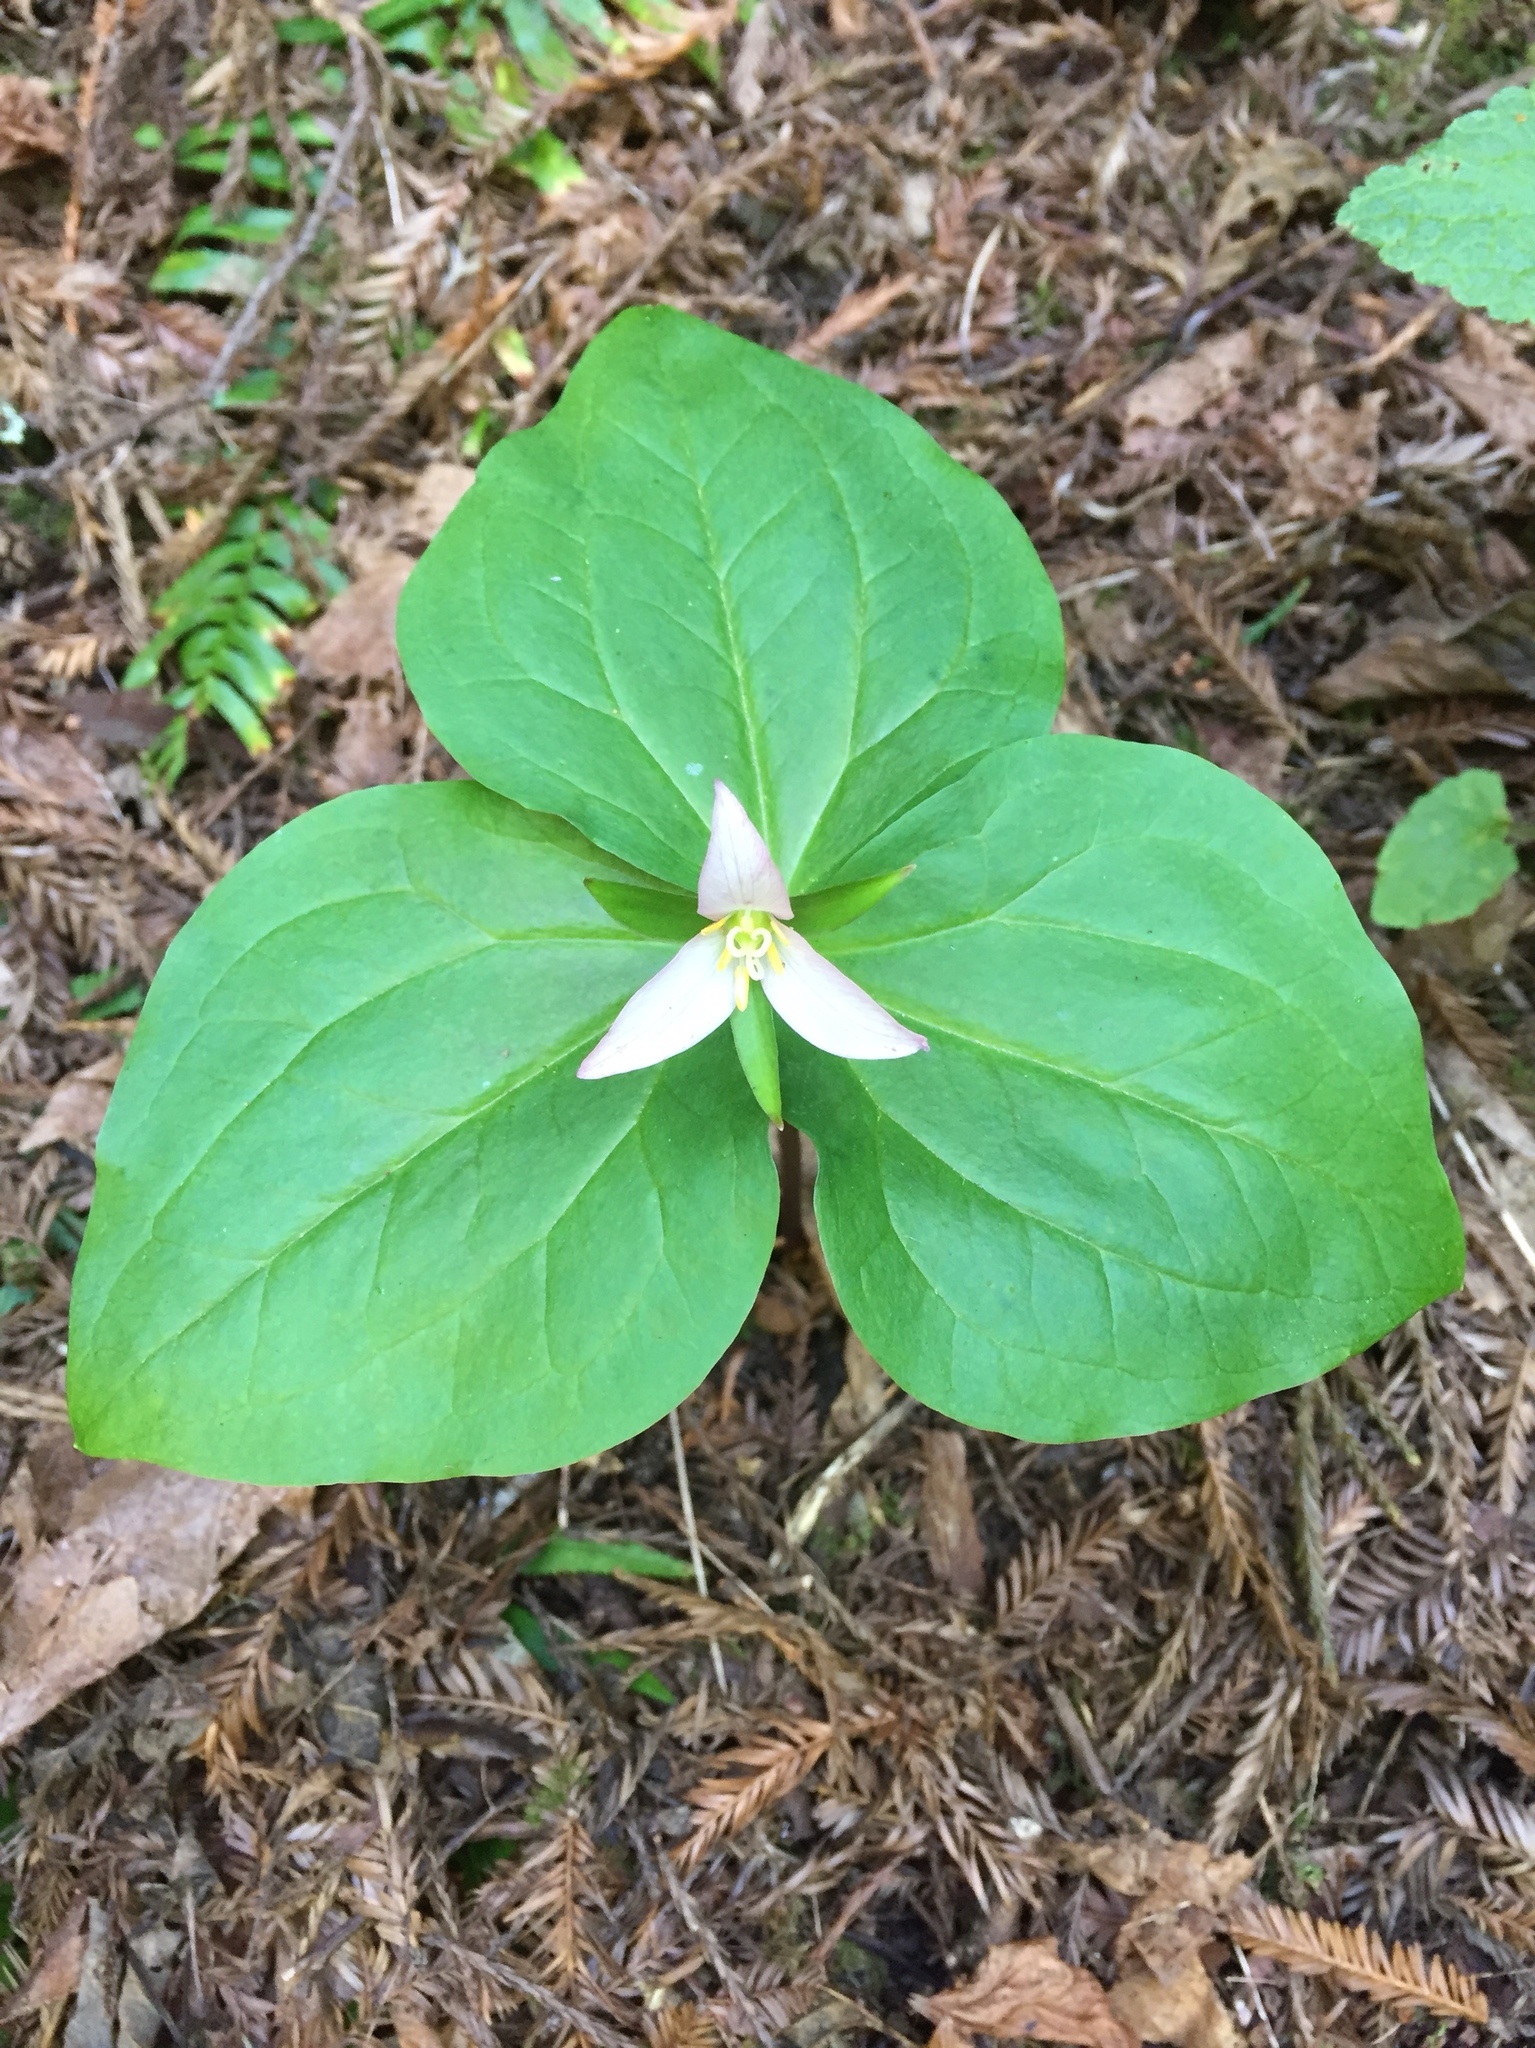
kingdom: Plantae
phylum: Tracheophyta
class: Liliopsida
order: Liliales
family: Melanthiaceae
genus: Trillium
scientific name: Trillium ovatum
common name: Pacific trillium
